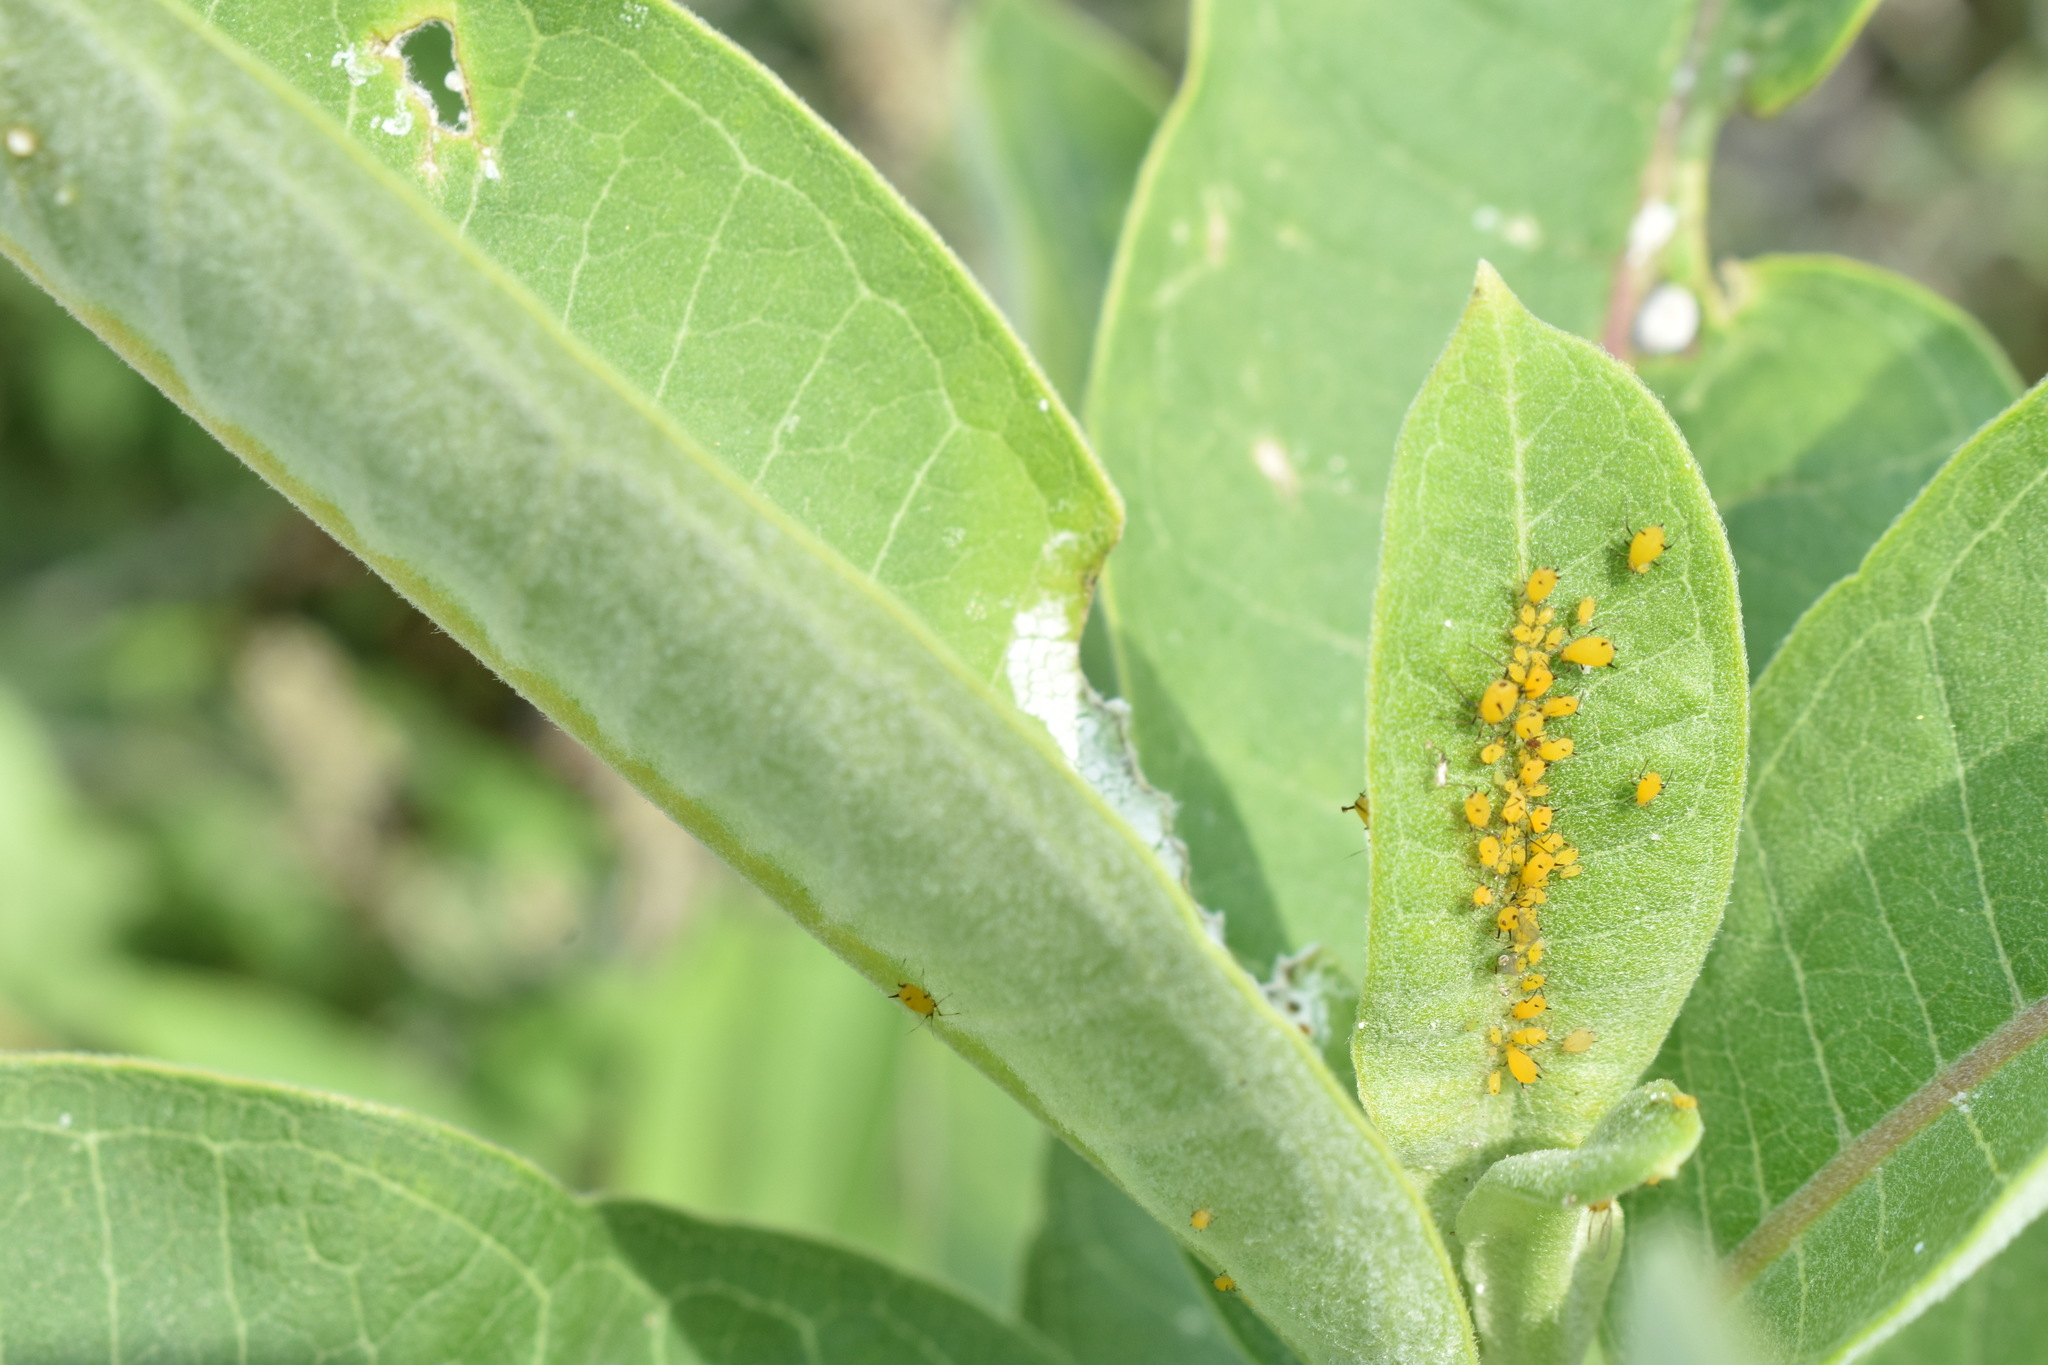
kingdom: Animalia
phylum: Arthropoda
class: Insecta
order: Hemiptera
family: Aphididae
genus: Aphis
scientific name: Aphis nerii
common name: Oleander aphid
